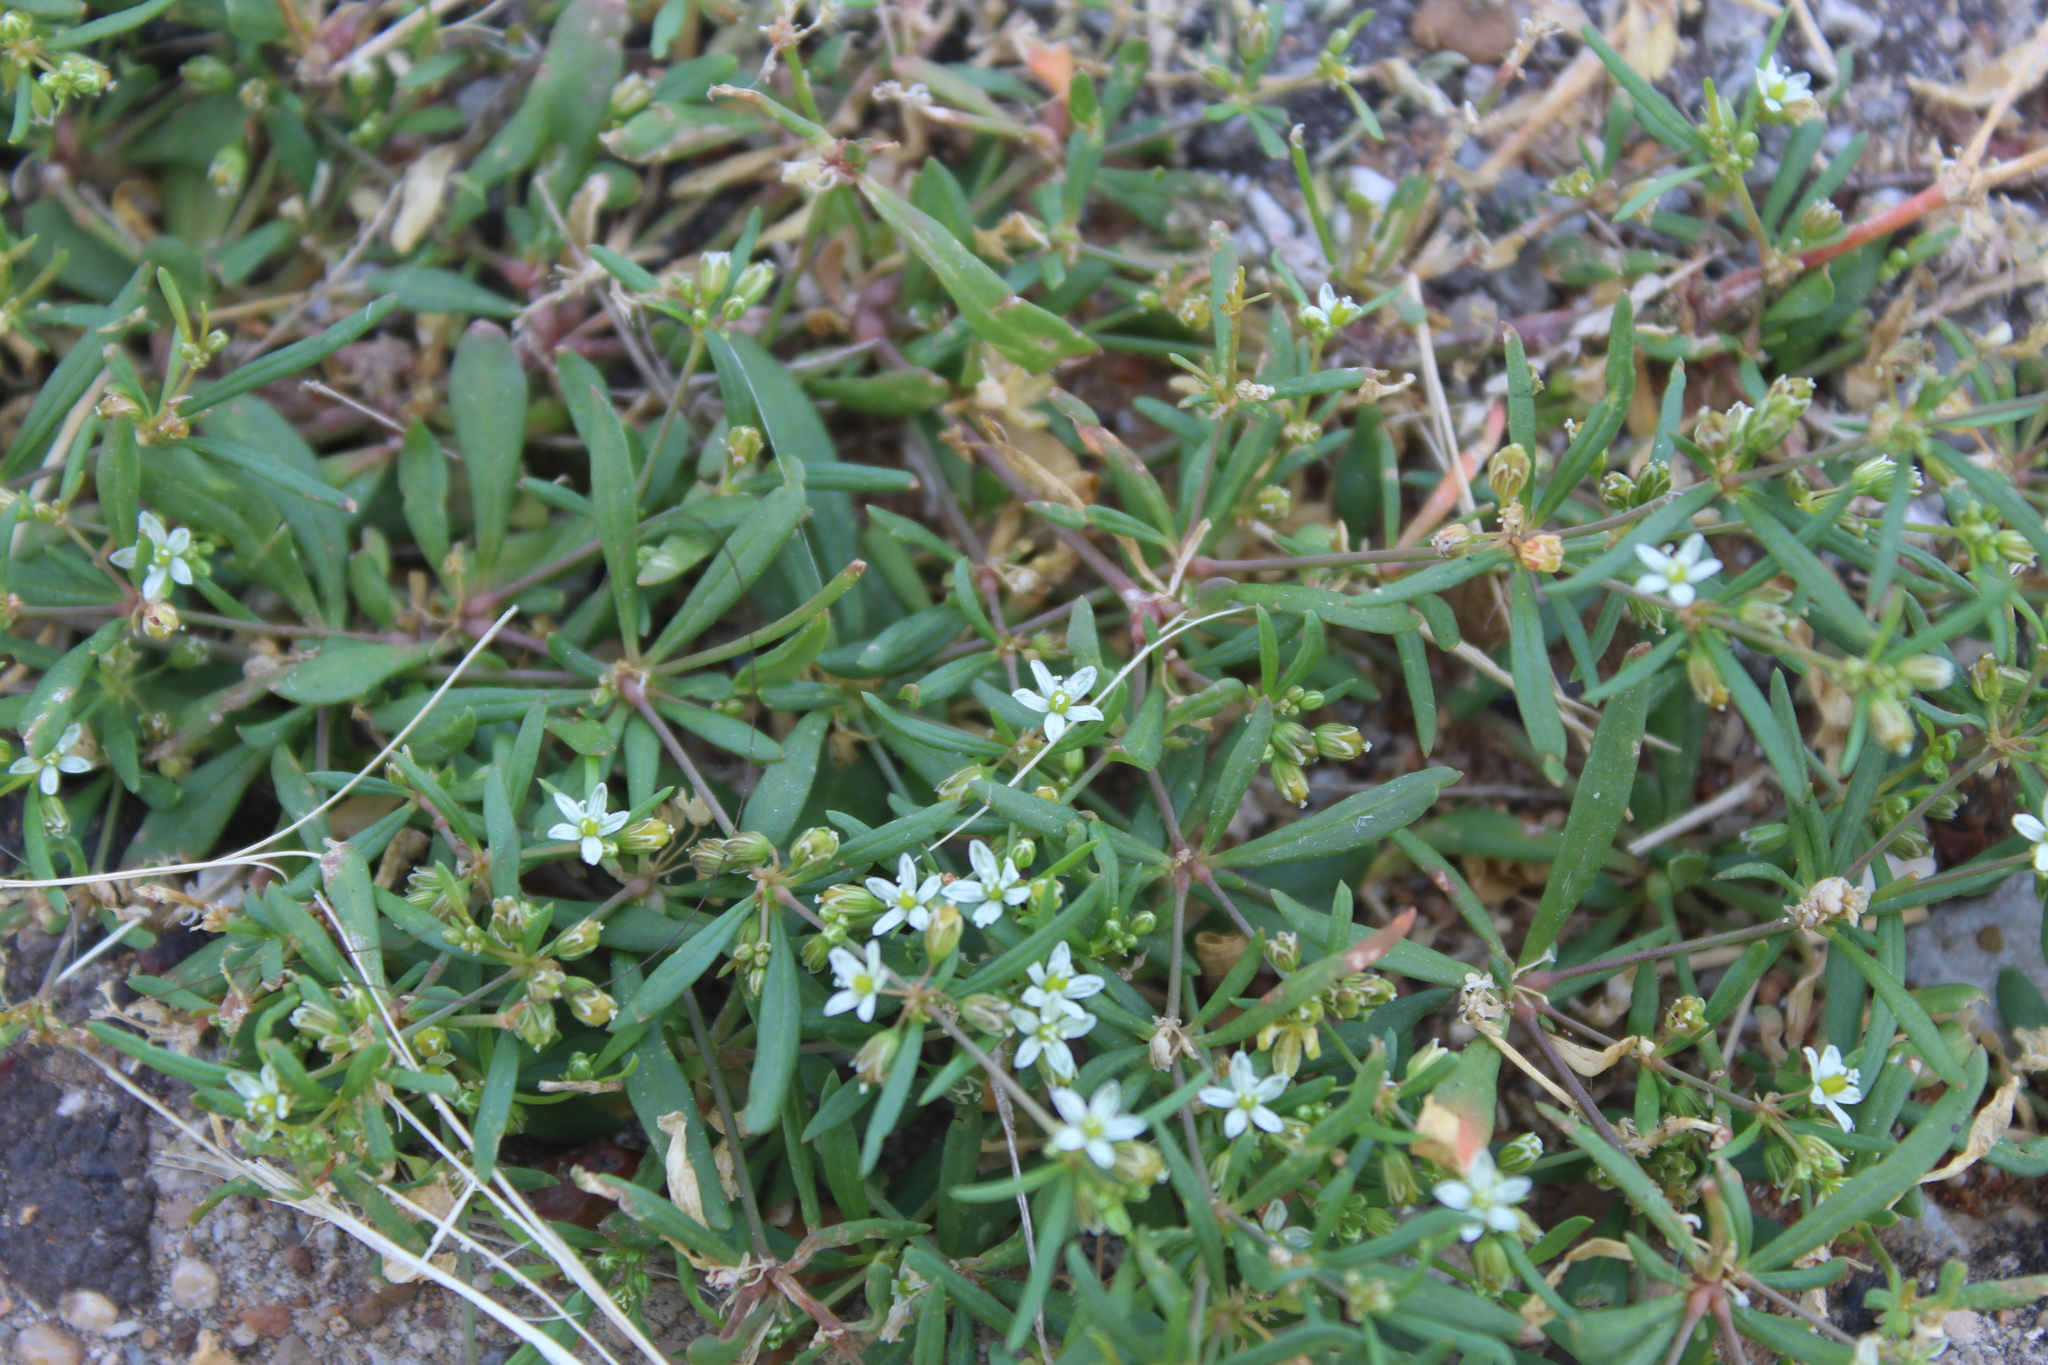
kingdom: Plantae
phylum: Tracheophyta
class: Magnoliopsida
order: Caryophyllales
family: Molluginaceae
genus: Mollugo
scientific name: Mollugo verticillata
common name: Green carpetweed
